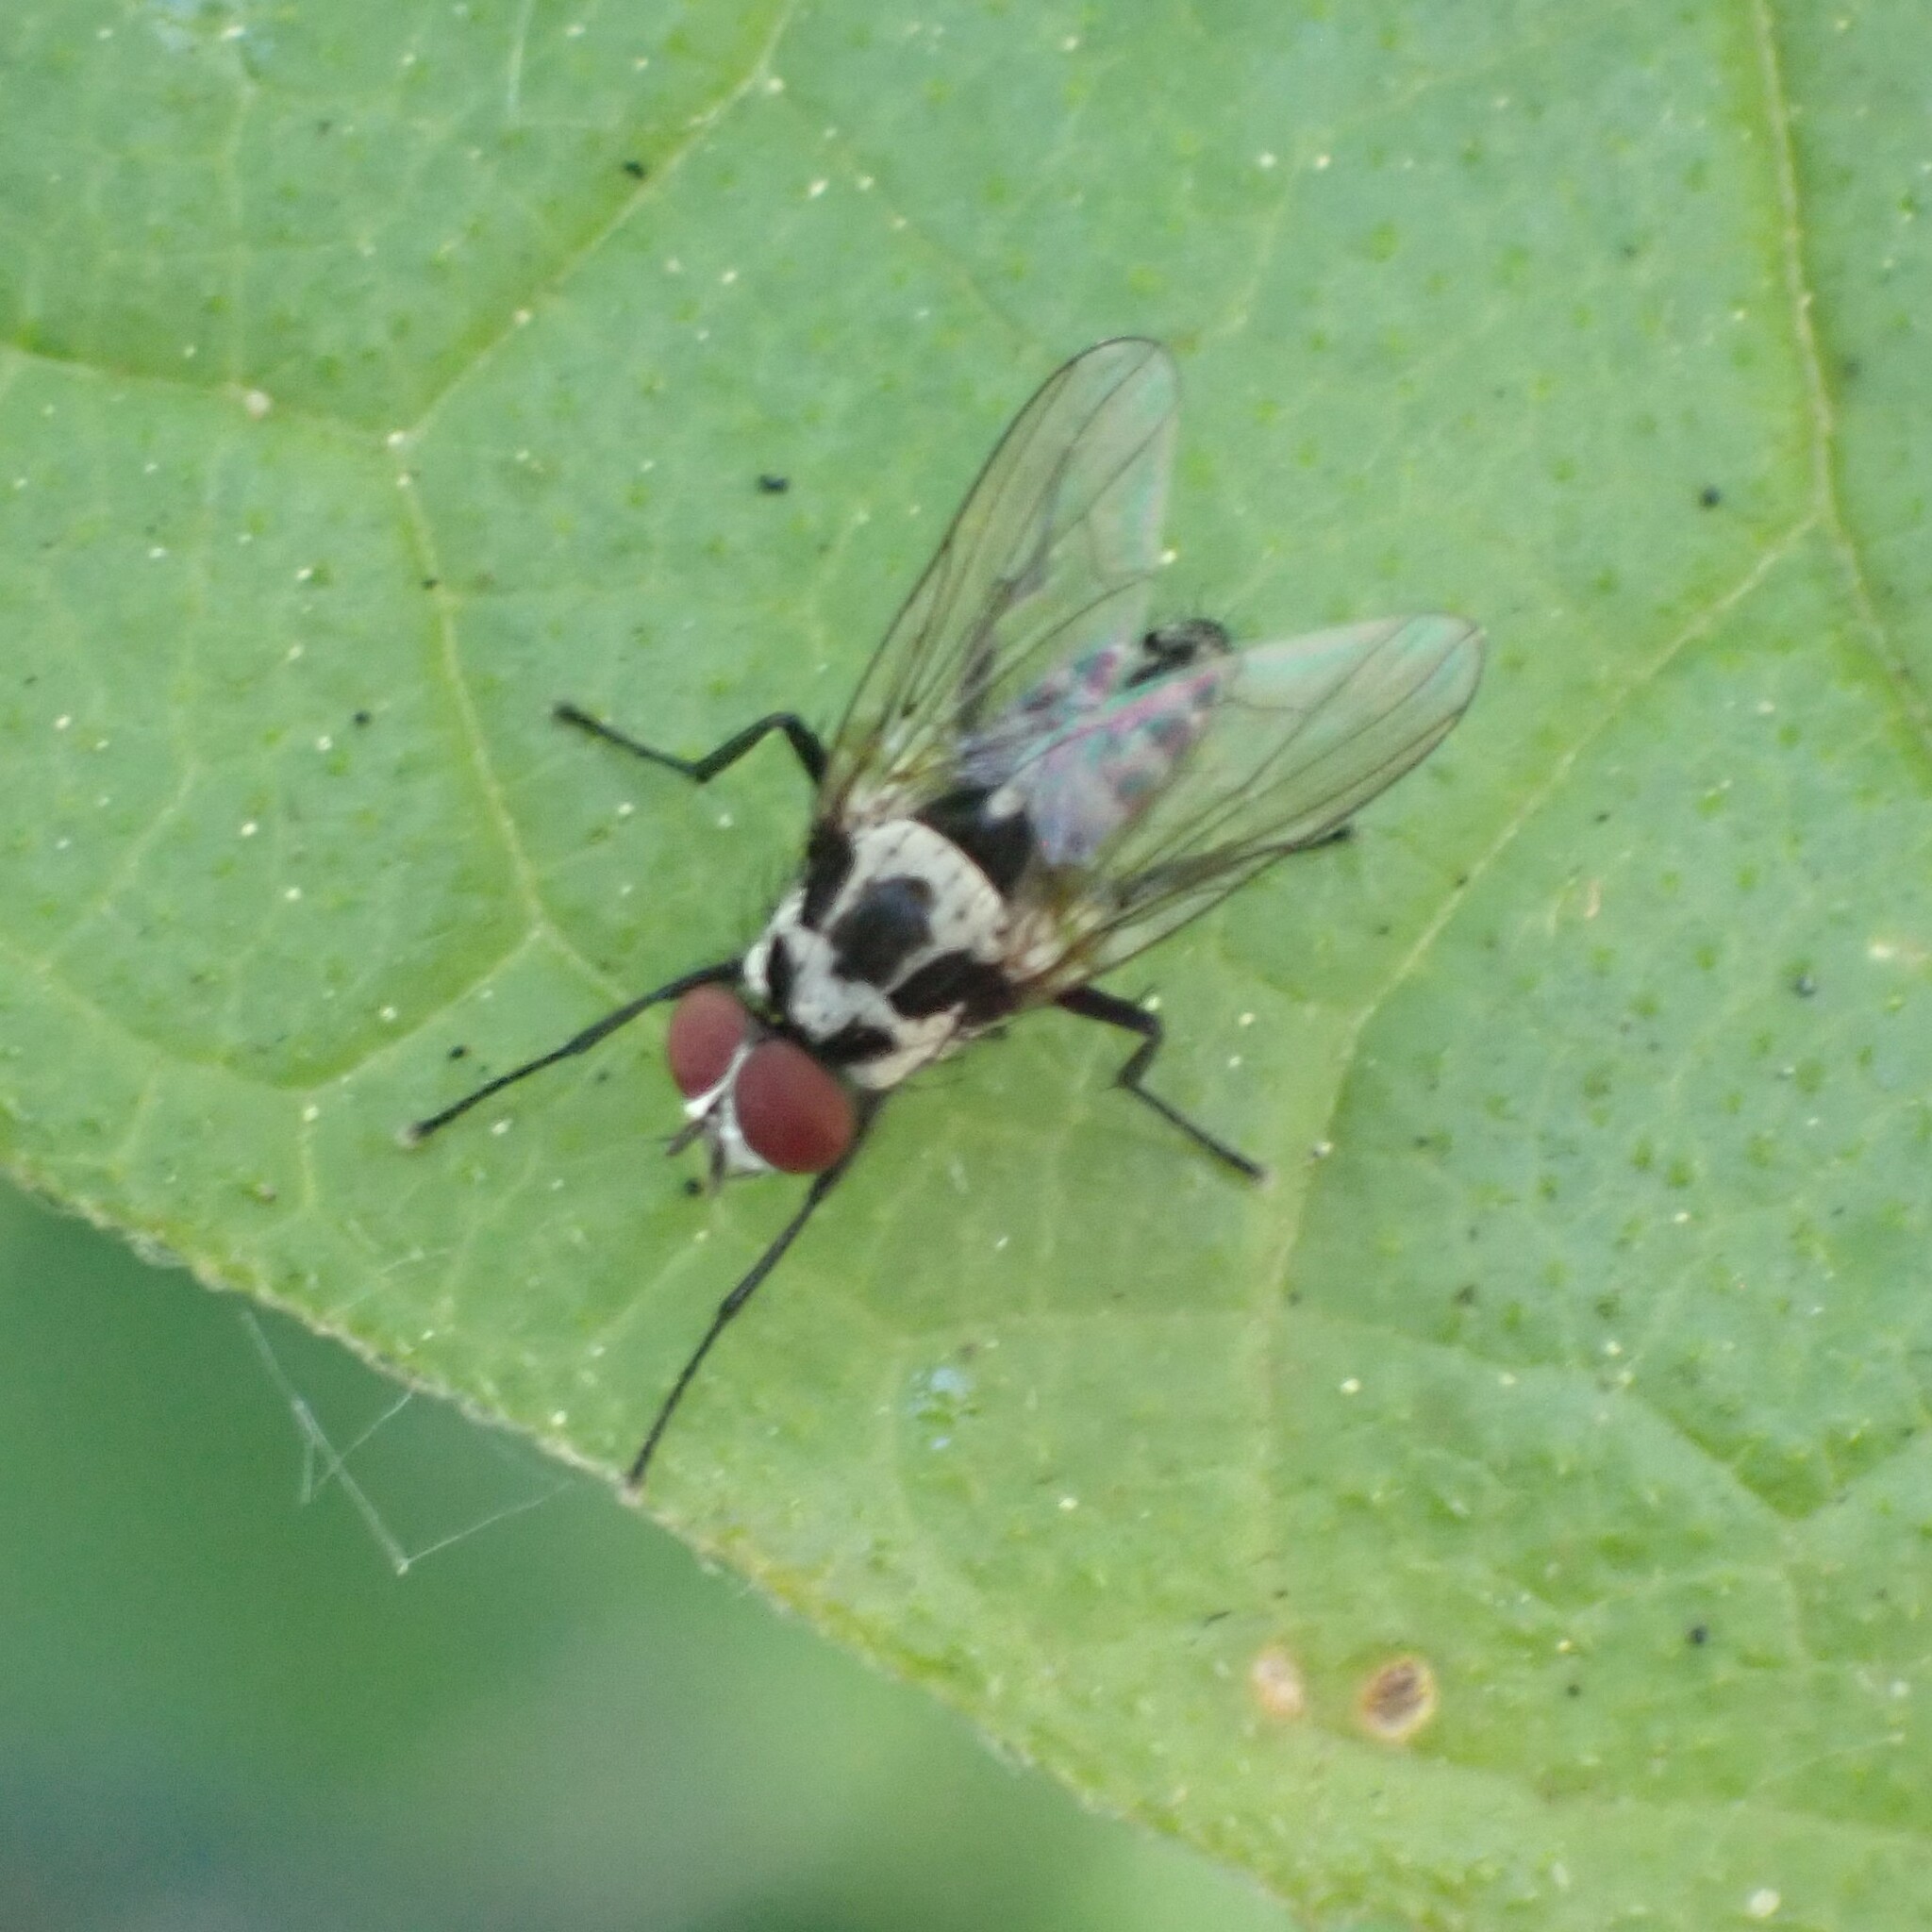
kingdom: Animalia
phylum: Arthropoda
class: Insecta
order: Diptera
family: Anthomyiidae
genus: Anthomyia
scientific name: Anthomyia procellaris
